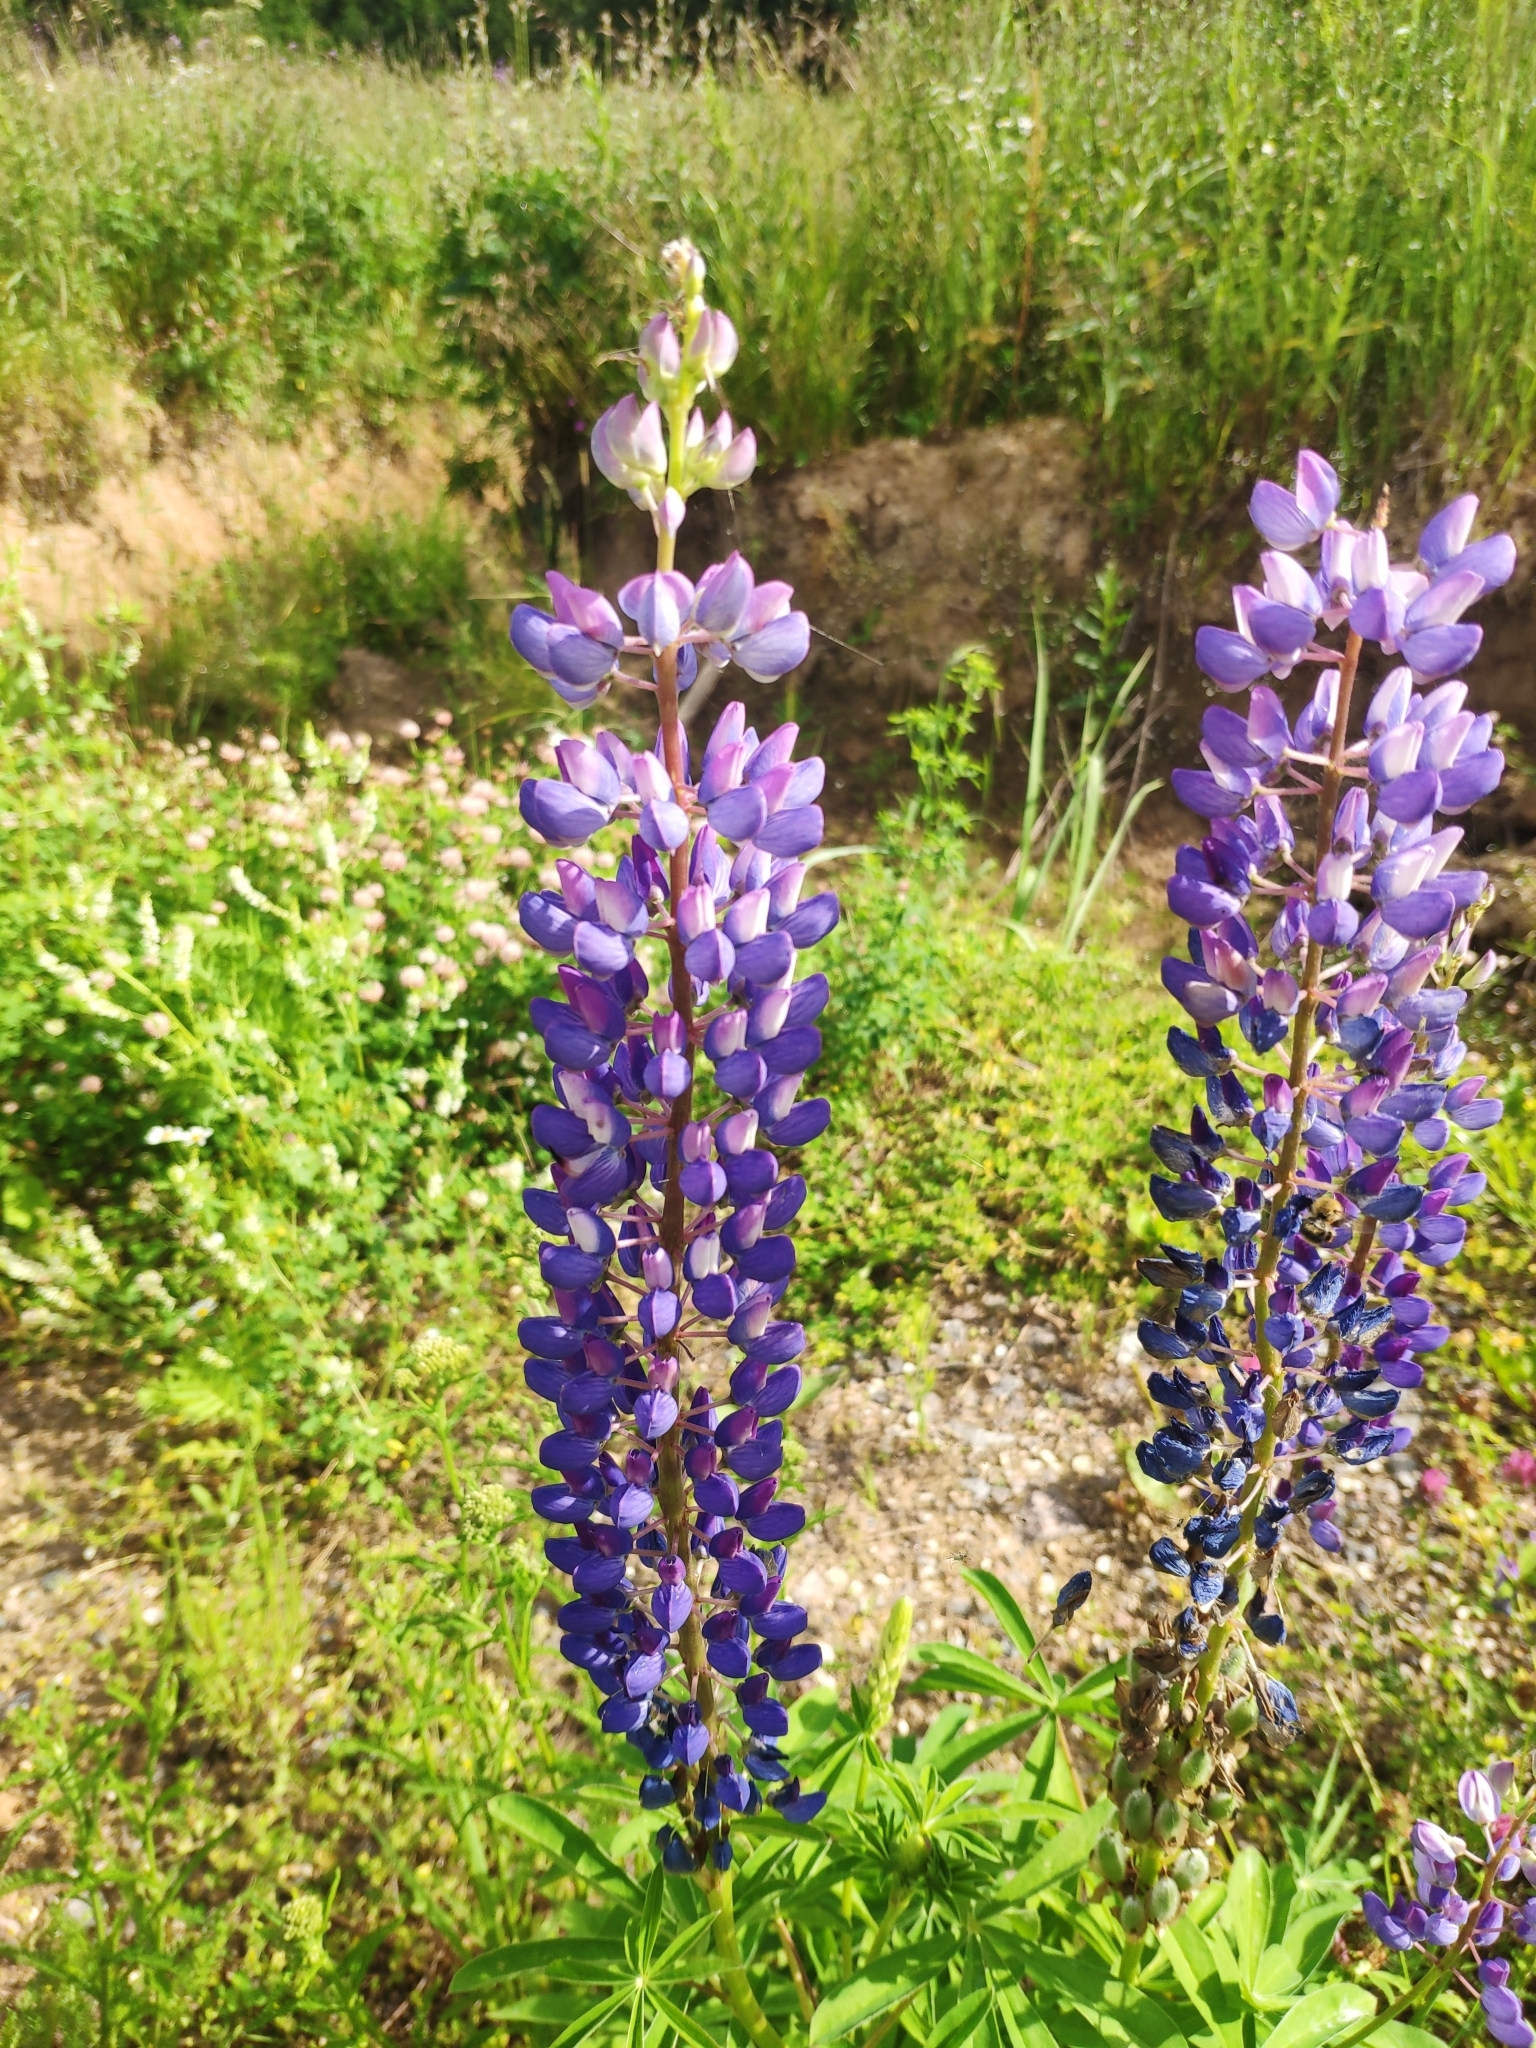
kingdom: Plantae
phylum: Tracheophyta
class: Magnoliopsida
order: Fabales
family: Fabaceae
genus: Lupinus
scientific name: Lupinus polyphyllus
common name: Garden lupin
